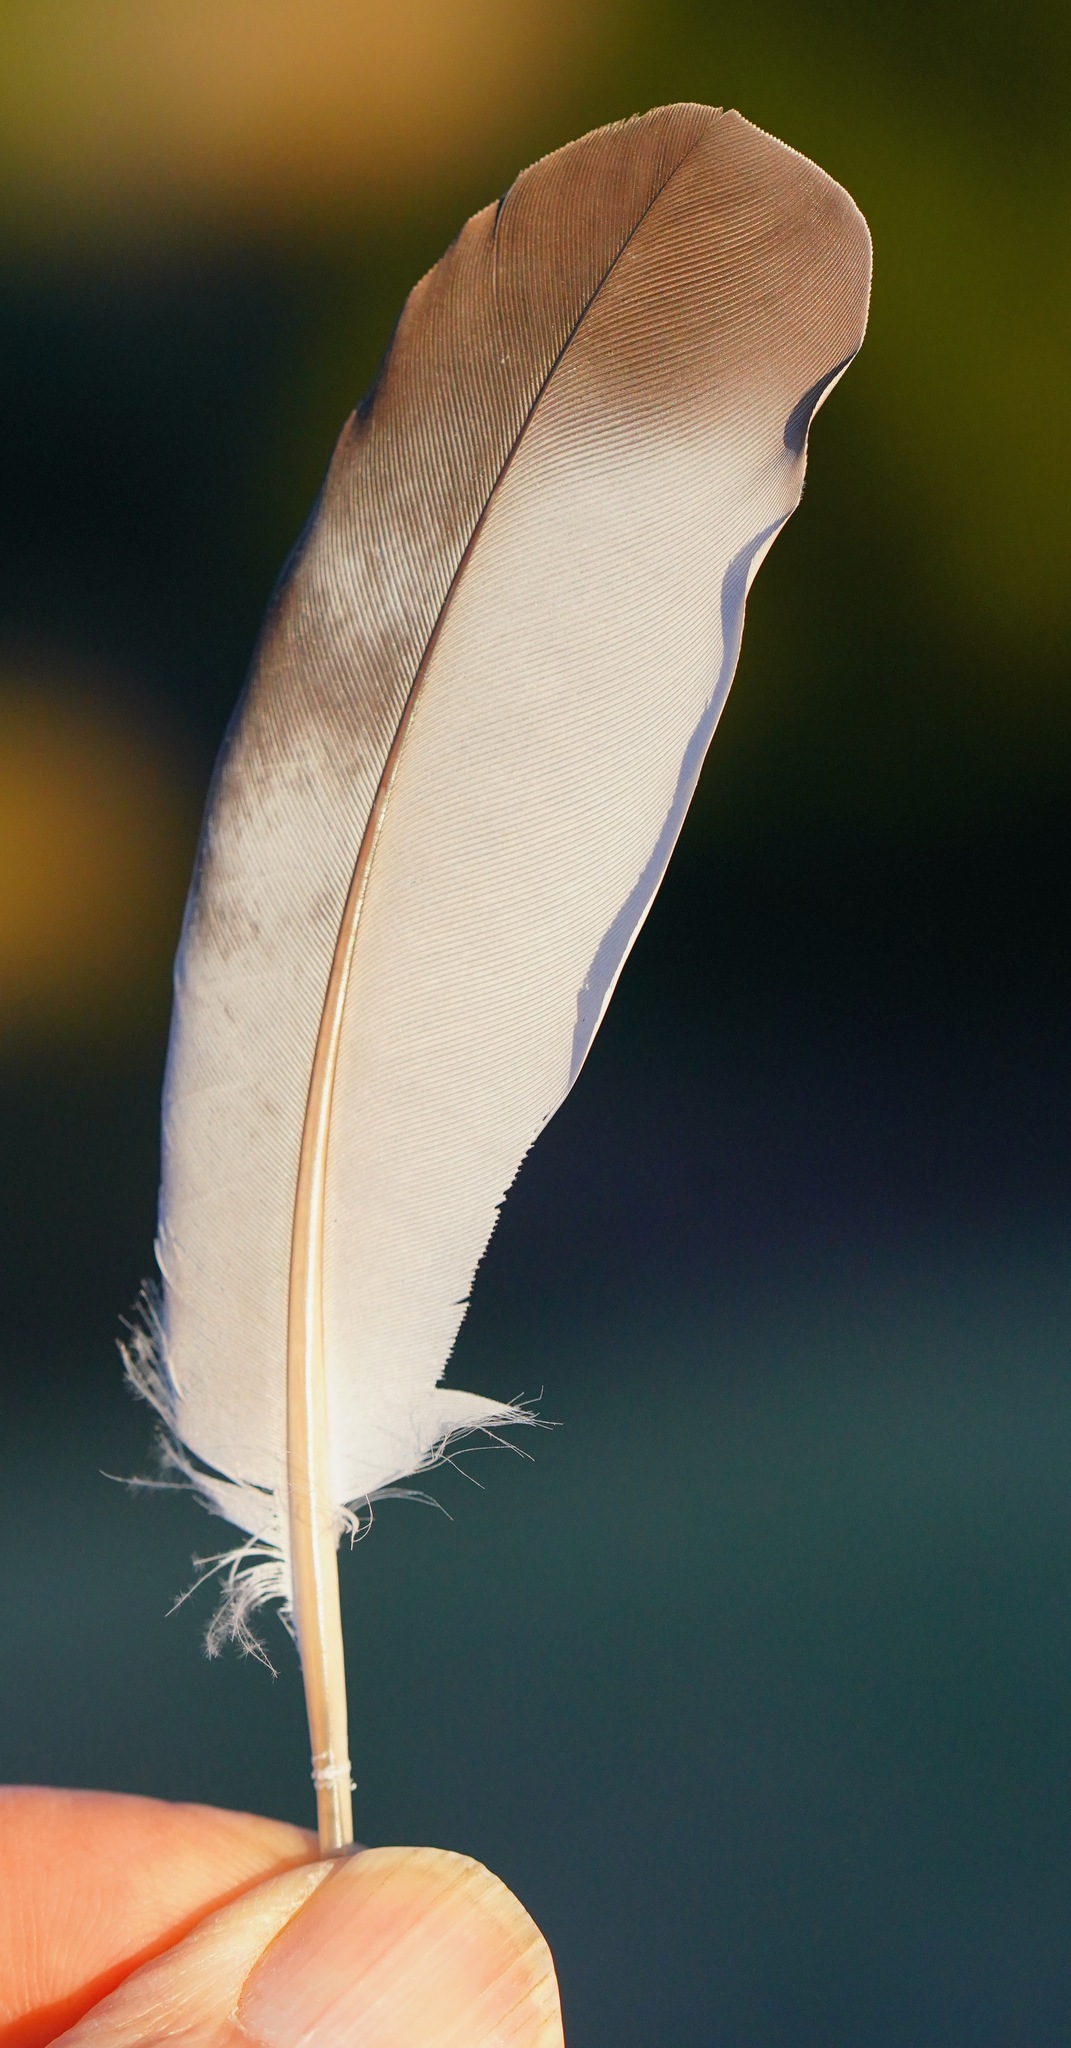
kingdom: Animalia
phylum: Chordata
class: Aves
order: Columbiformes
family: Columbidae
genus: Columba
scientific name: Columba livia
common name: Rock pigeon
